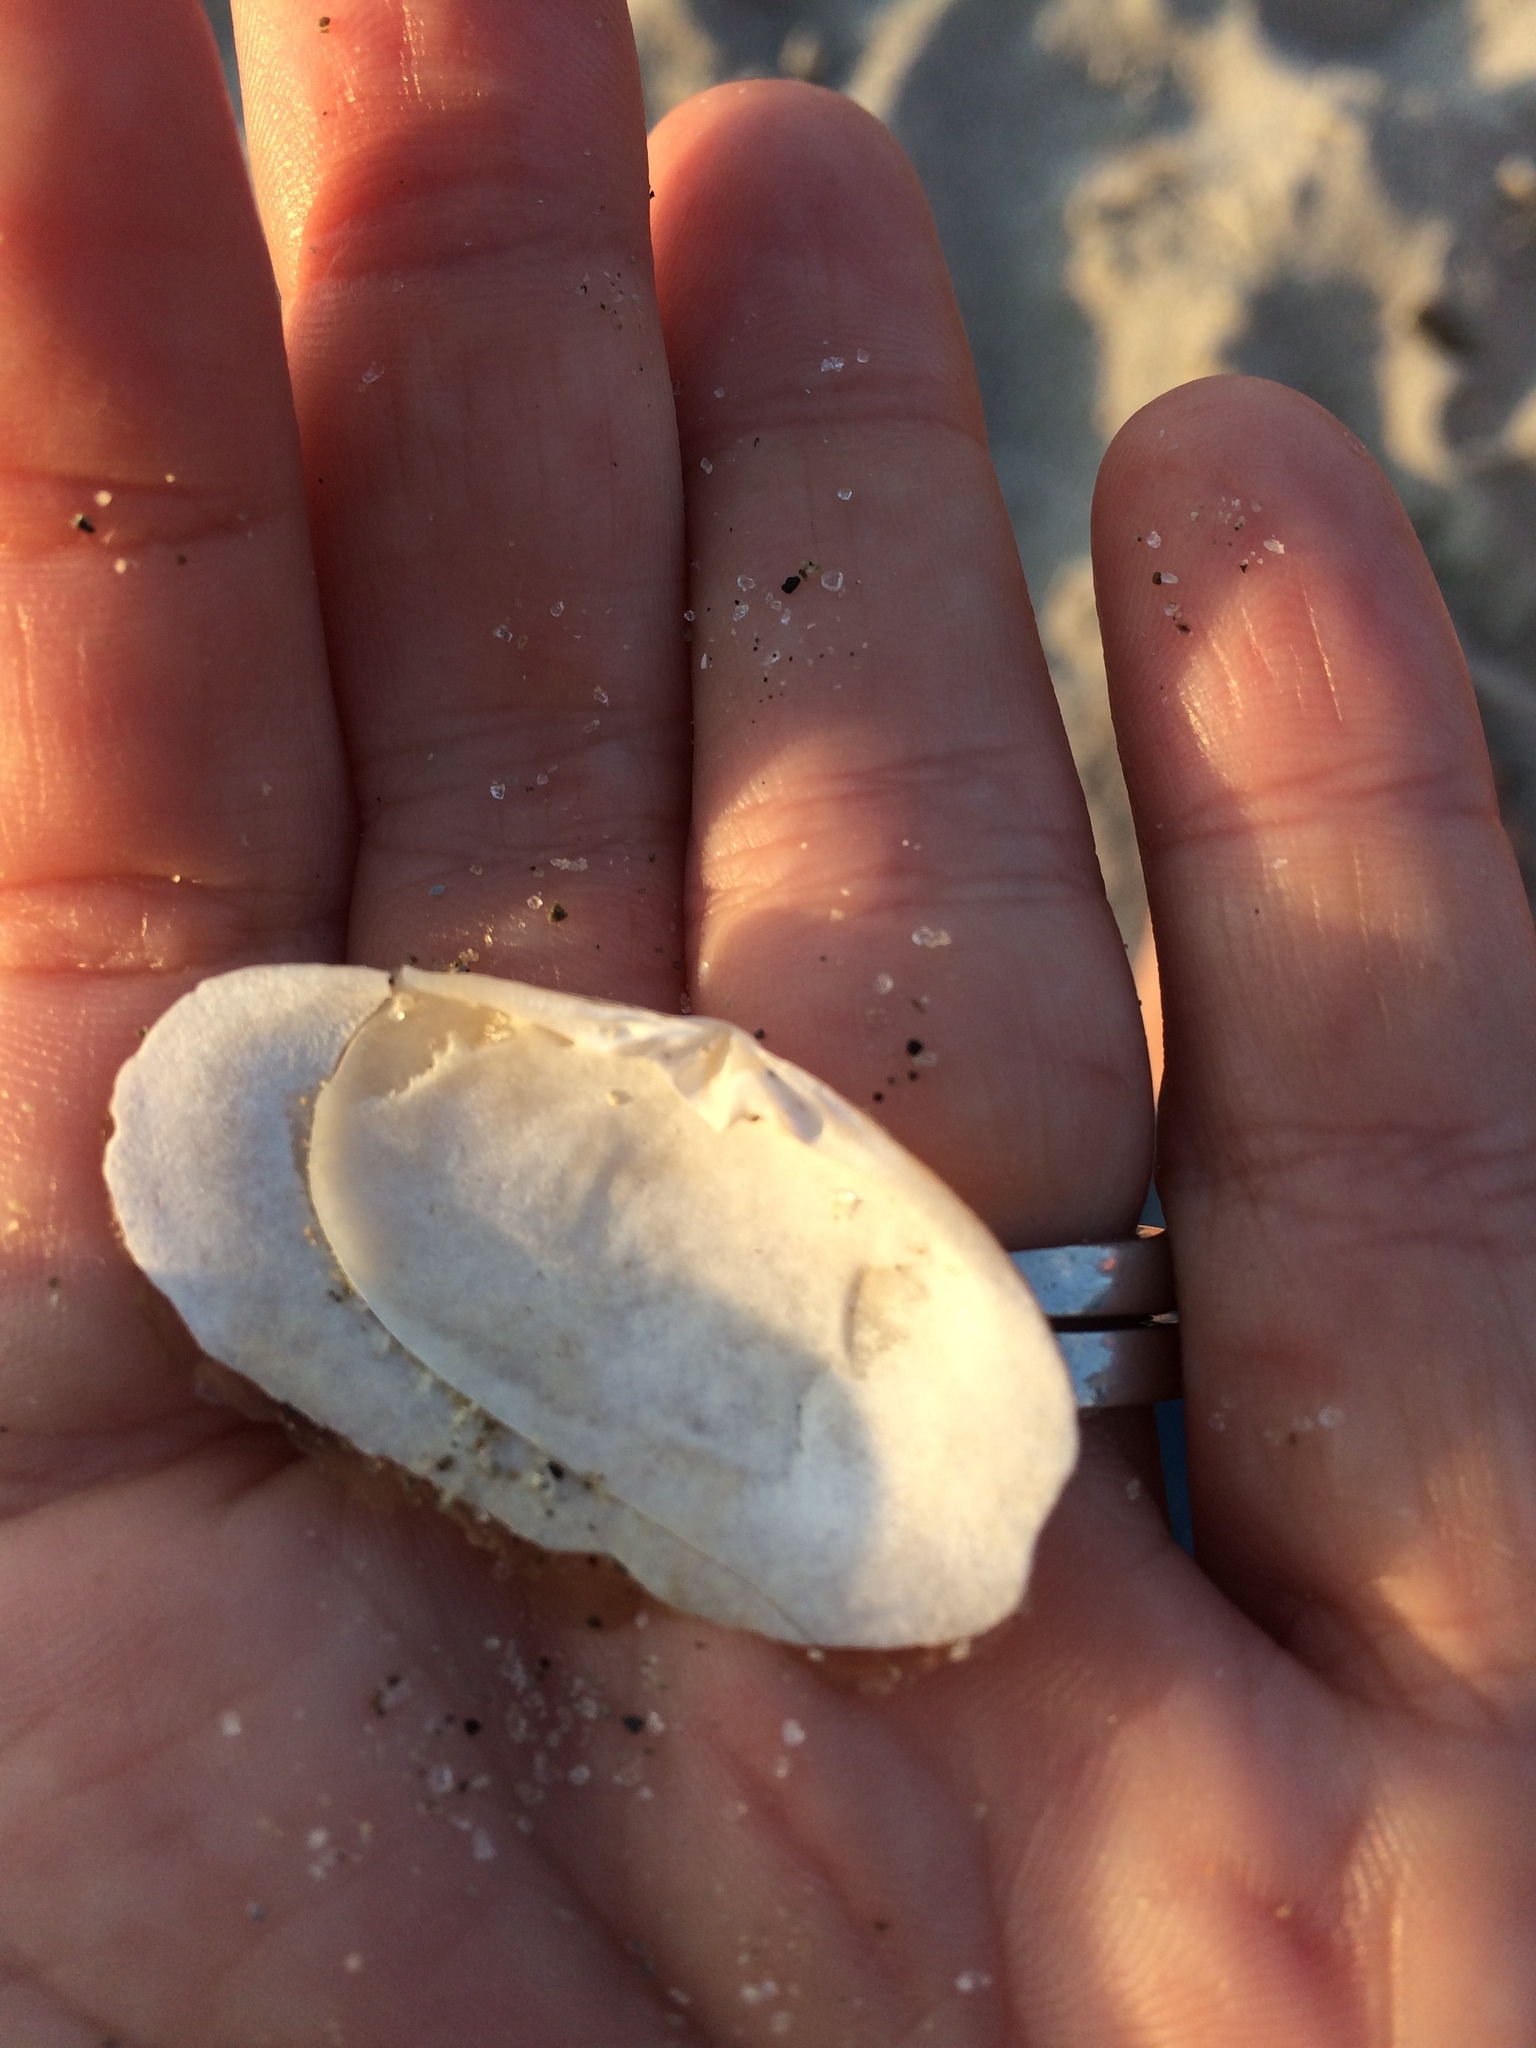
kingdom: Animalia
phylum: Mollusca
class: Bivalvia
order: Venerida
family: Mesodesmatidae
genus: Paphies
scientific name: Paphies australis
